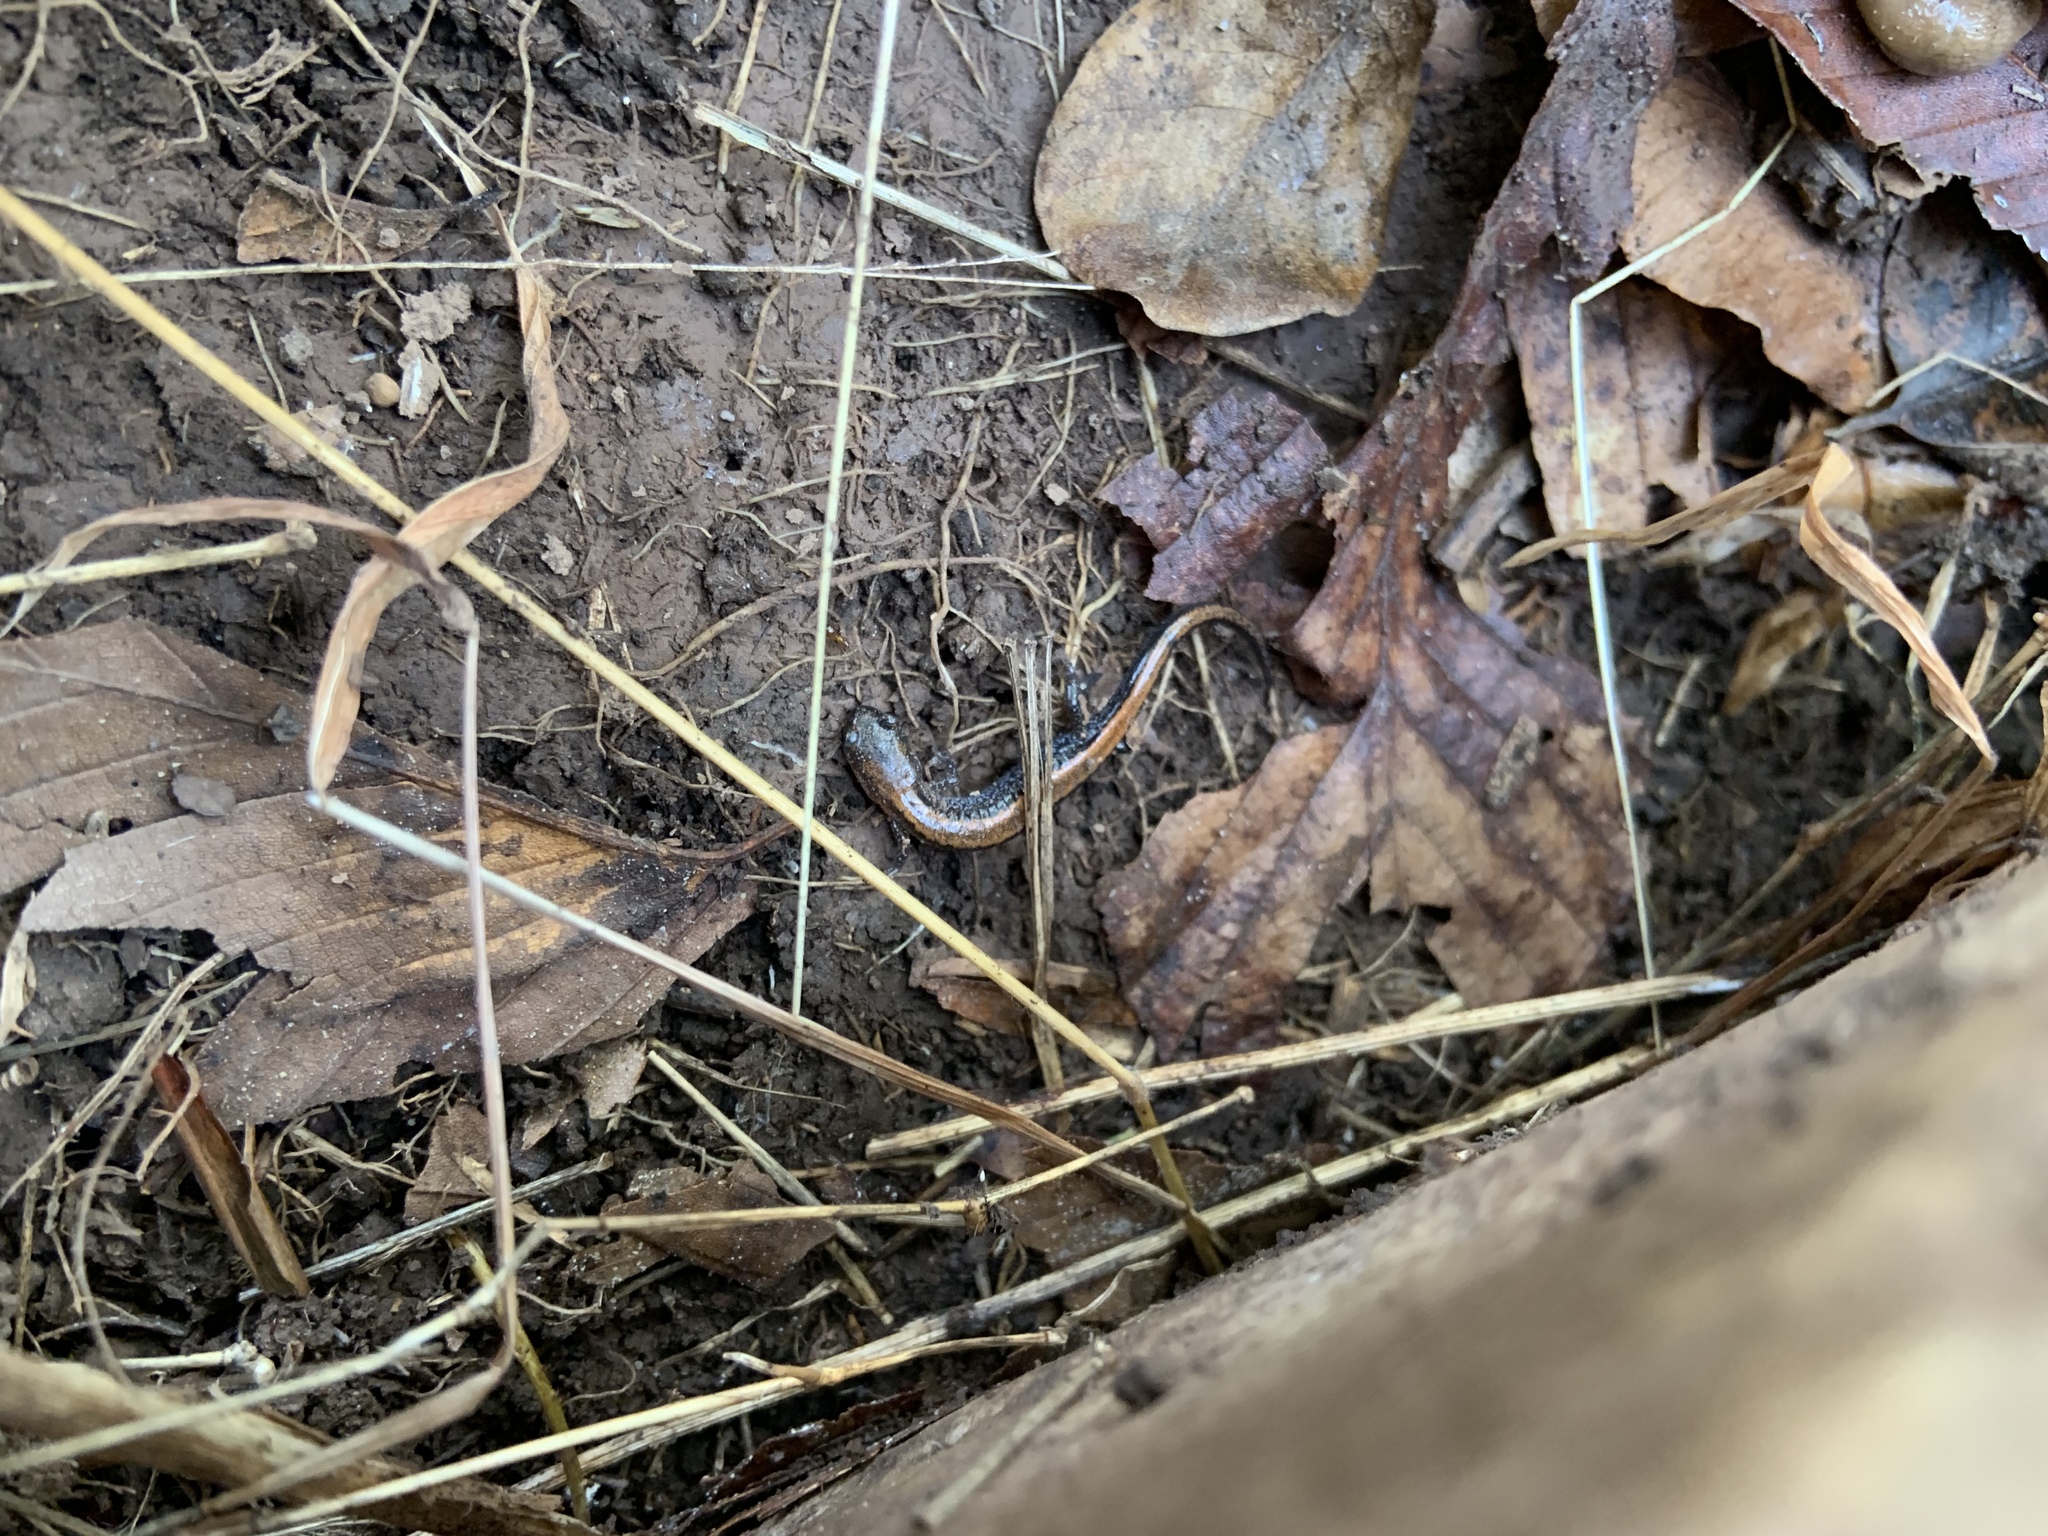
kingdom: Animalia
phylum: Chordata
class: Amphibia
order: Caudata
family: Plethodontidae
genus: Plethodon
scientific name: Plethodon cinereus
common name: Redback salamander
